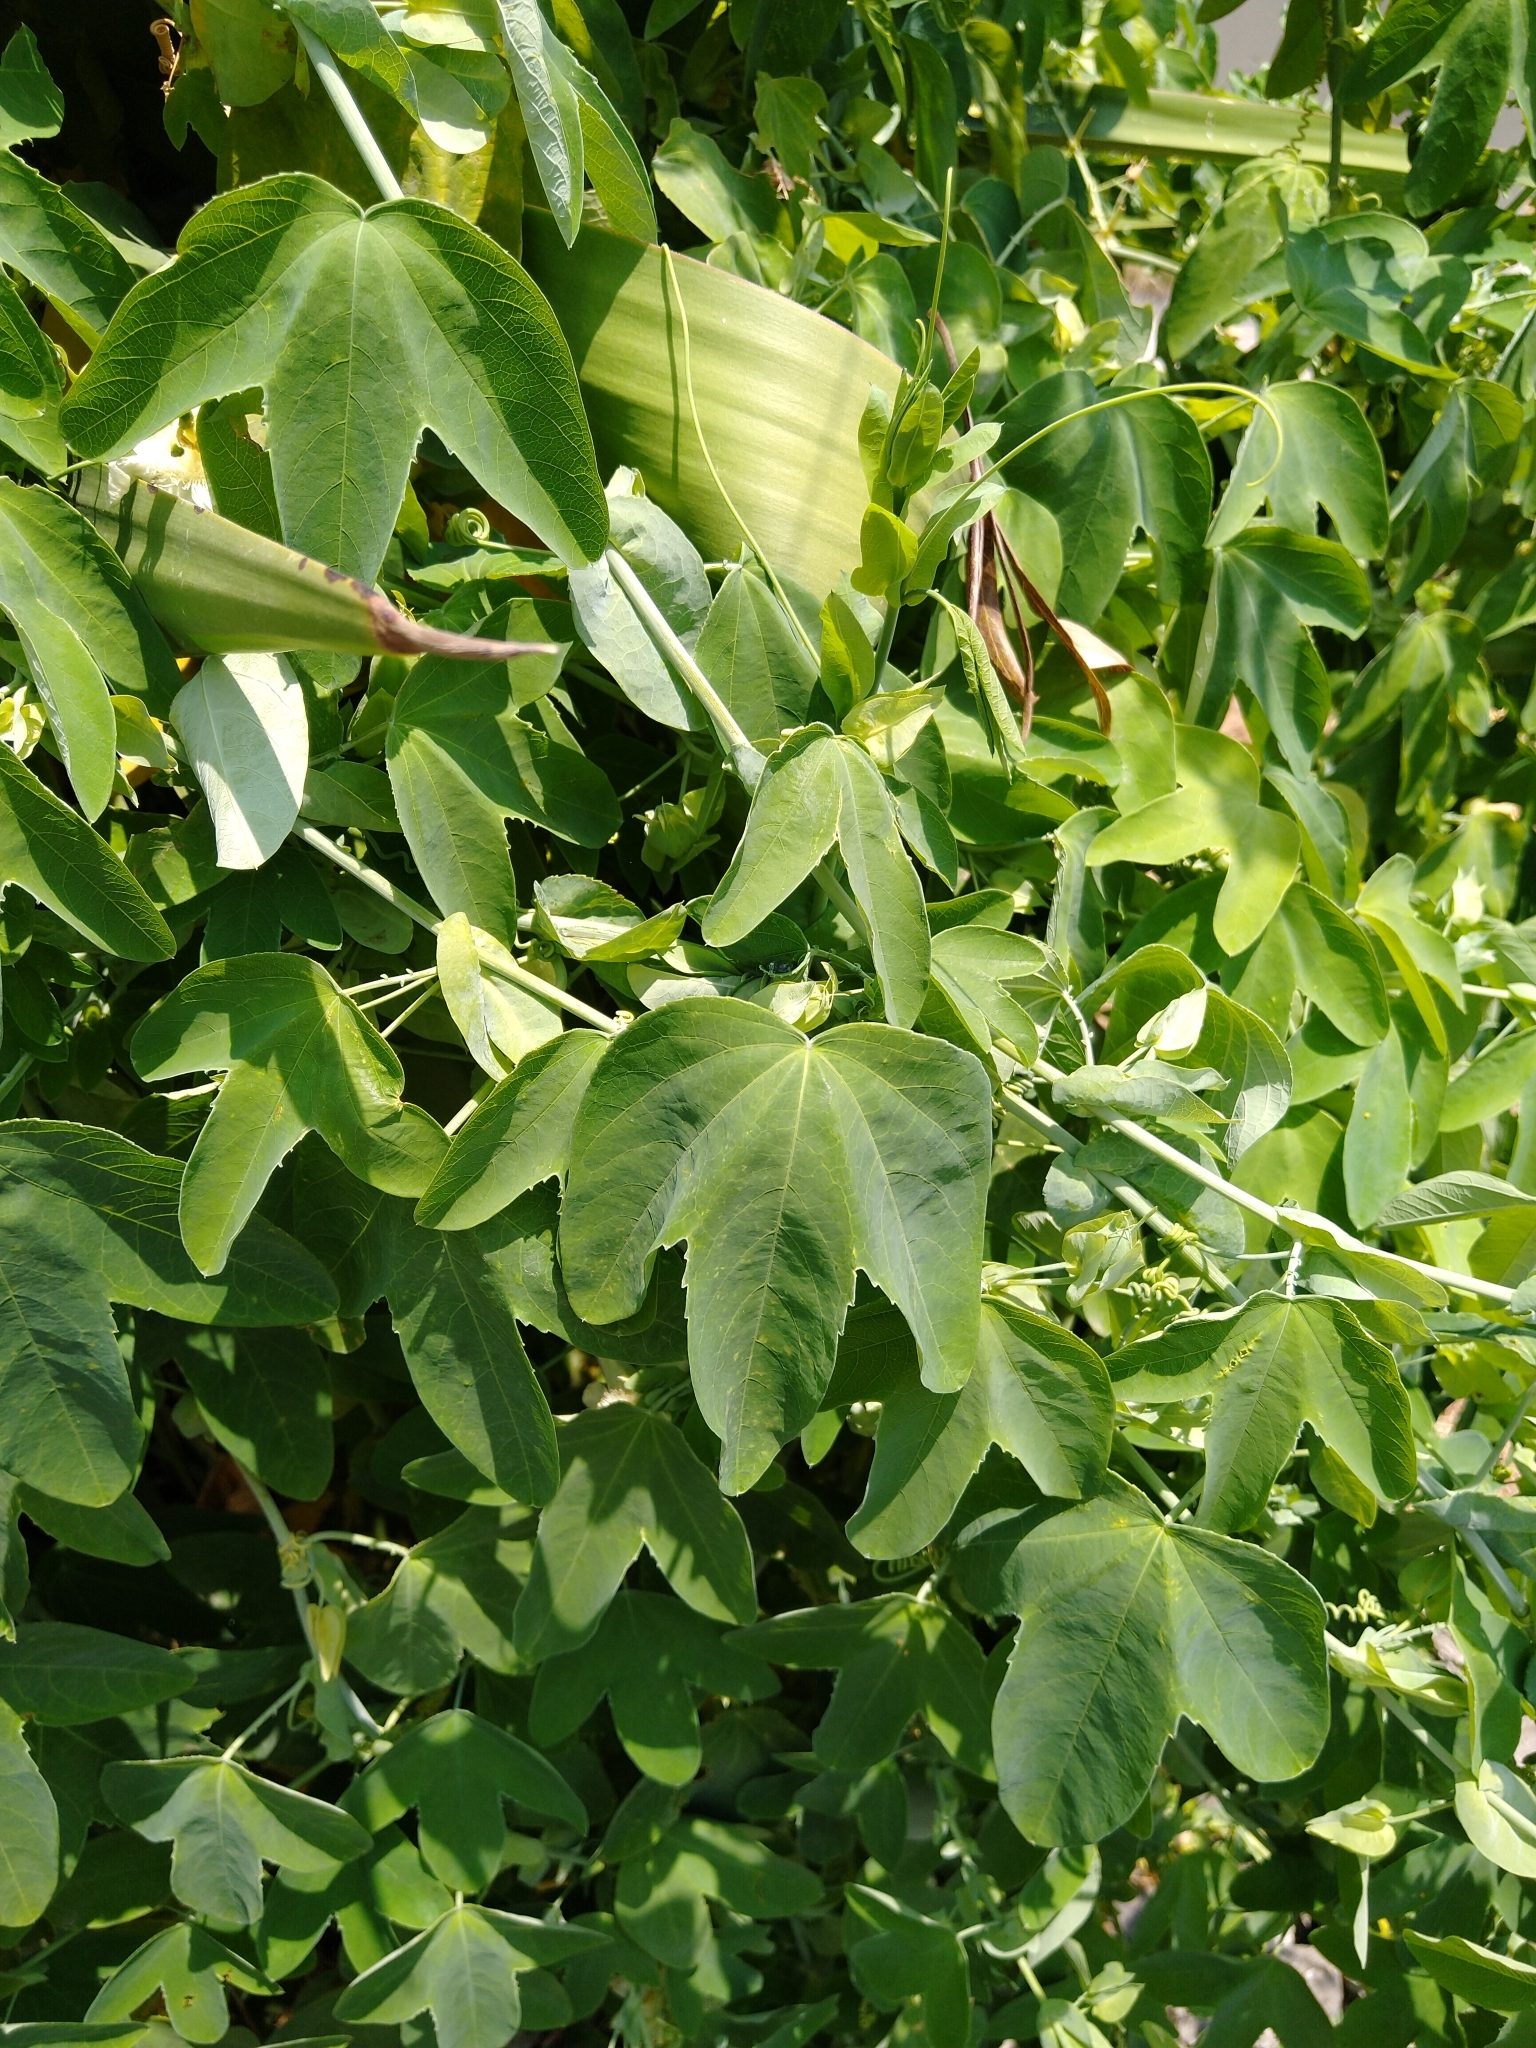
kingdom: Plantae
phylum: Tracheophyta
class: Magnoliopsida
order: Malpighiales
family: Passifloraceae
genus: Passiflora
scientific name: Passiflora subpeltata
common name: White passionflower
